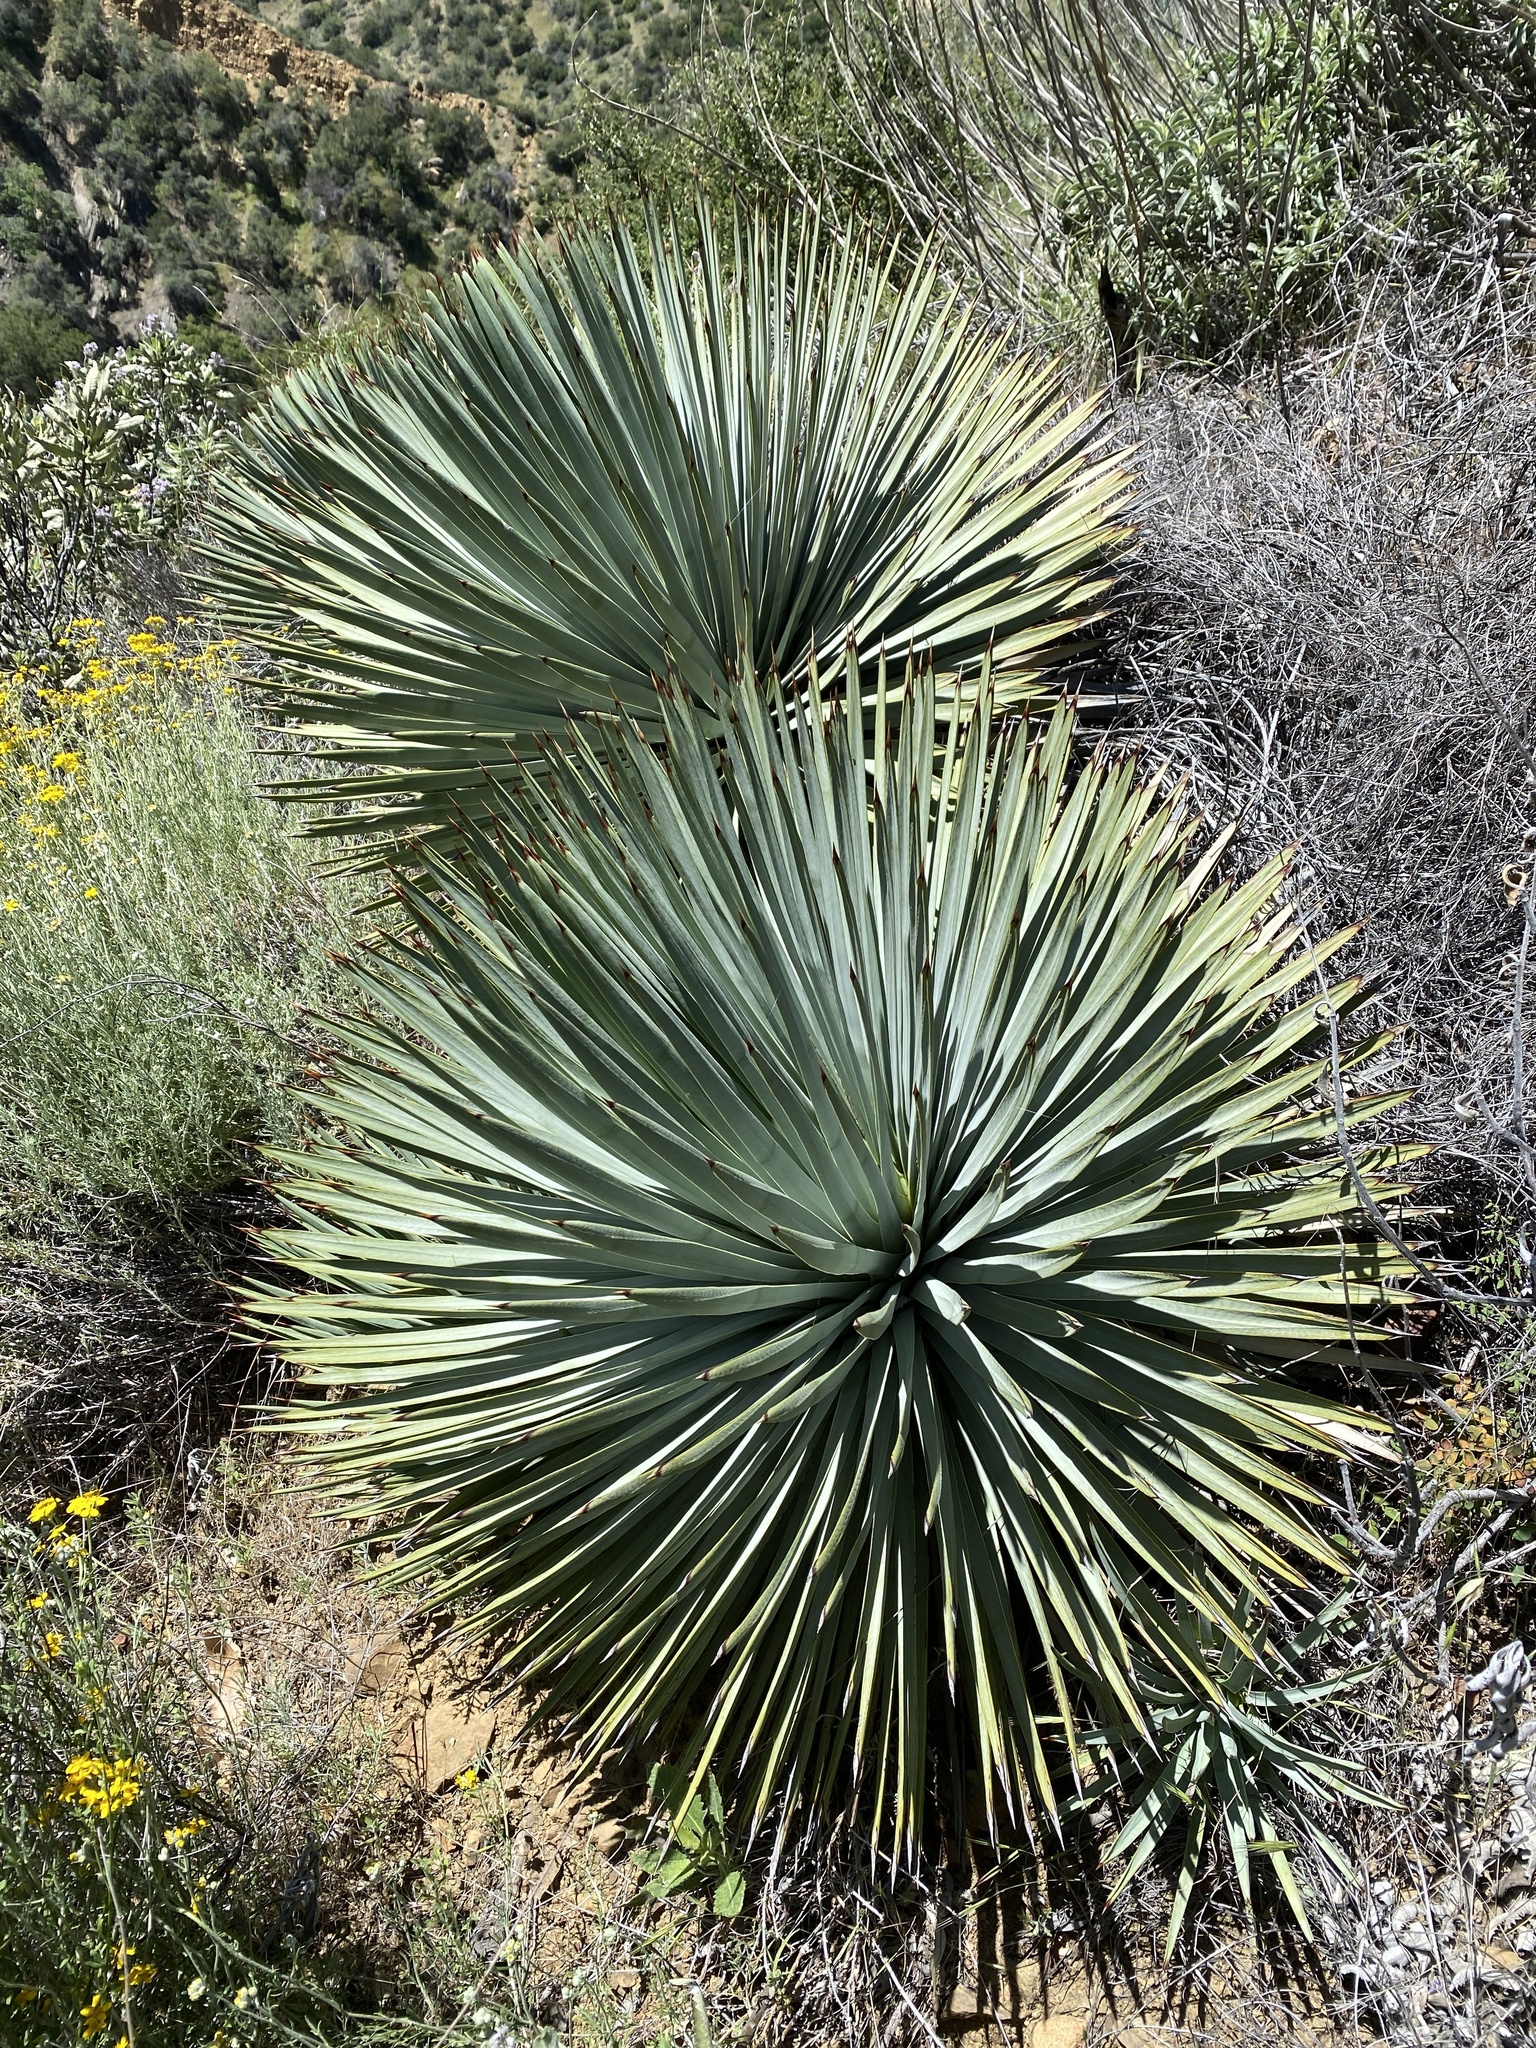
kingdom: Plantae
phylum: Tracheophyta
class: Liliopsida
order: Asparagales
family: Asparagaceae
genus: Hesperoyucca
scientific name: Hesperoyucca whipplei
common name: Our lord's-candle
